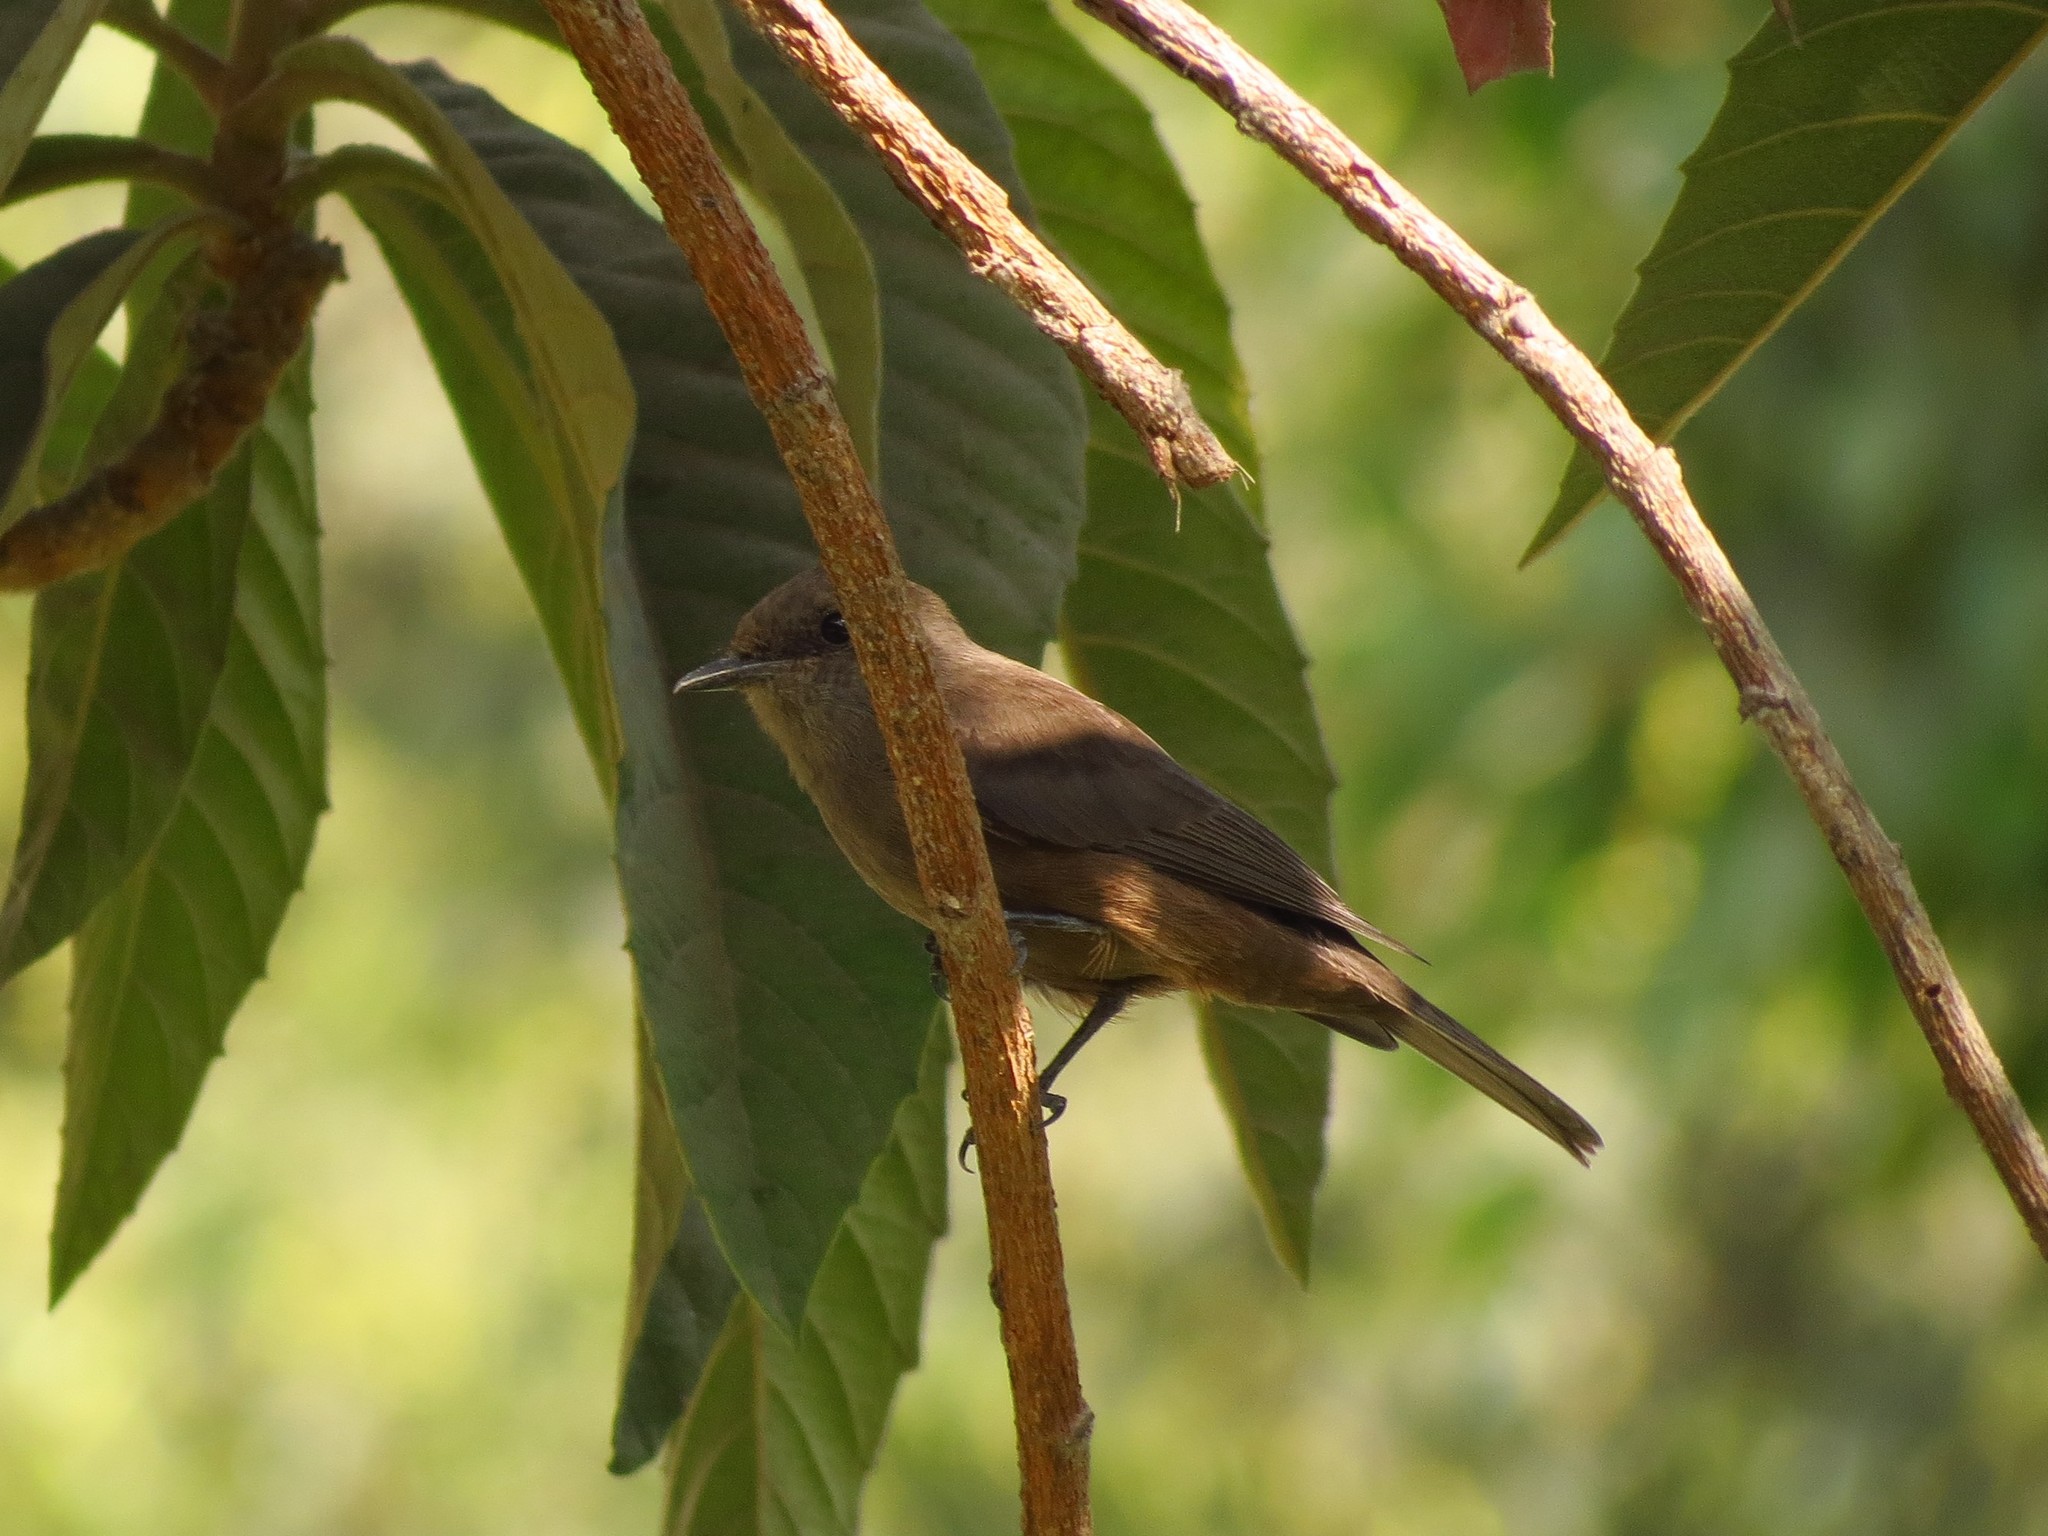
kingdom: Animalia
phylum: Chordata
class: Aves
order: Passeriformes
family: Tyrannidae
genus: Pyrocephalus
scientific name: Pyrocephalus rubinus
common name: Vermilion flycatcher
